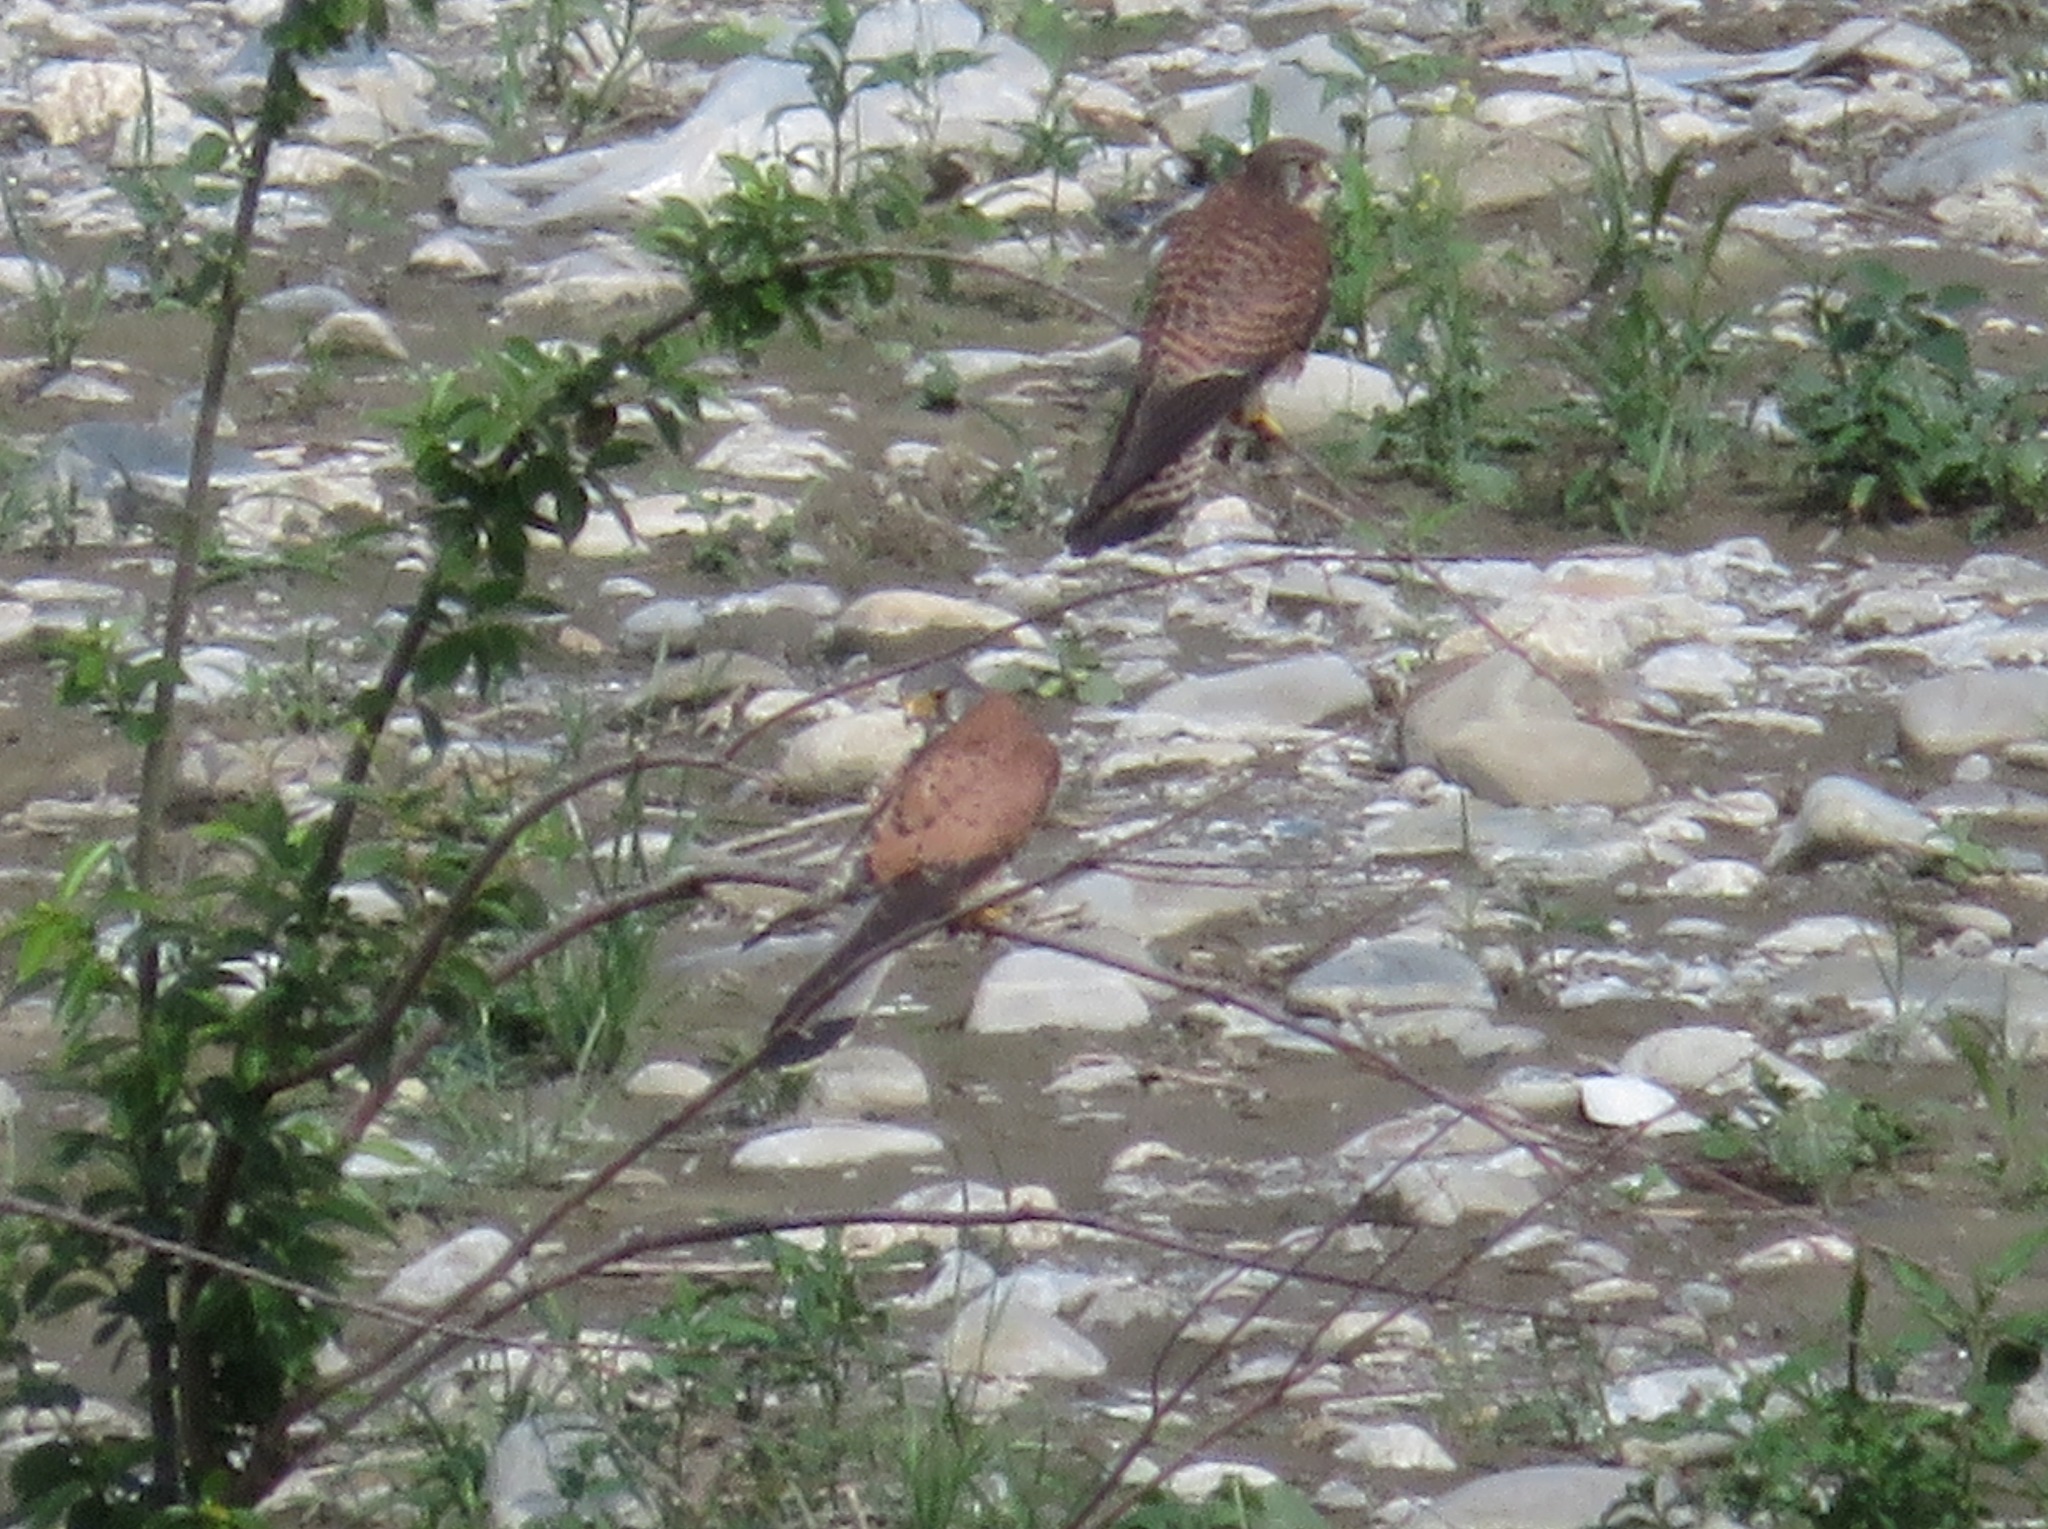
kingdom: Animalia
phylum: Chordata
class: Aves
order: Falconiformes
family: Falconidae
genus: Falco
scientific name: Falco tinnunculus
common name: Common kestrel
